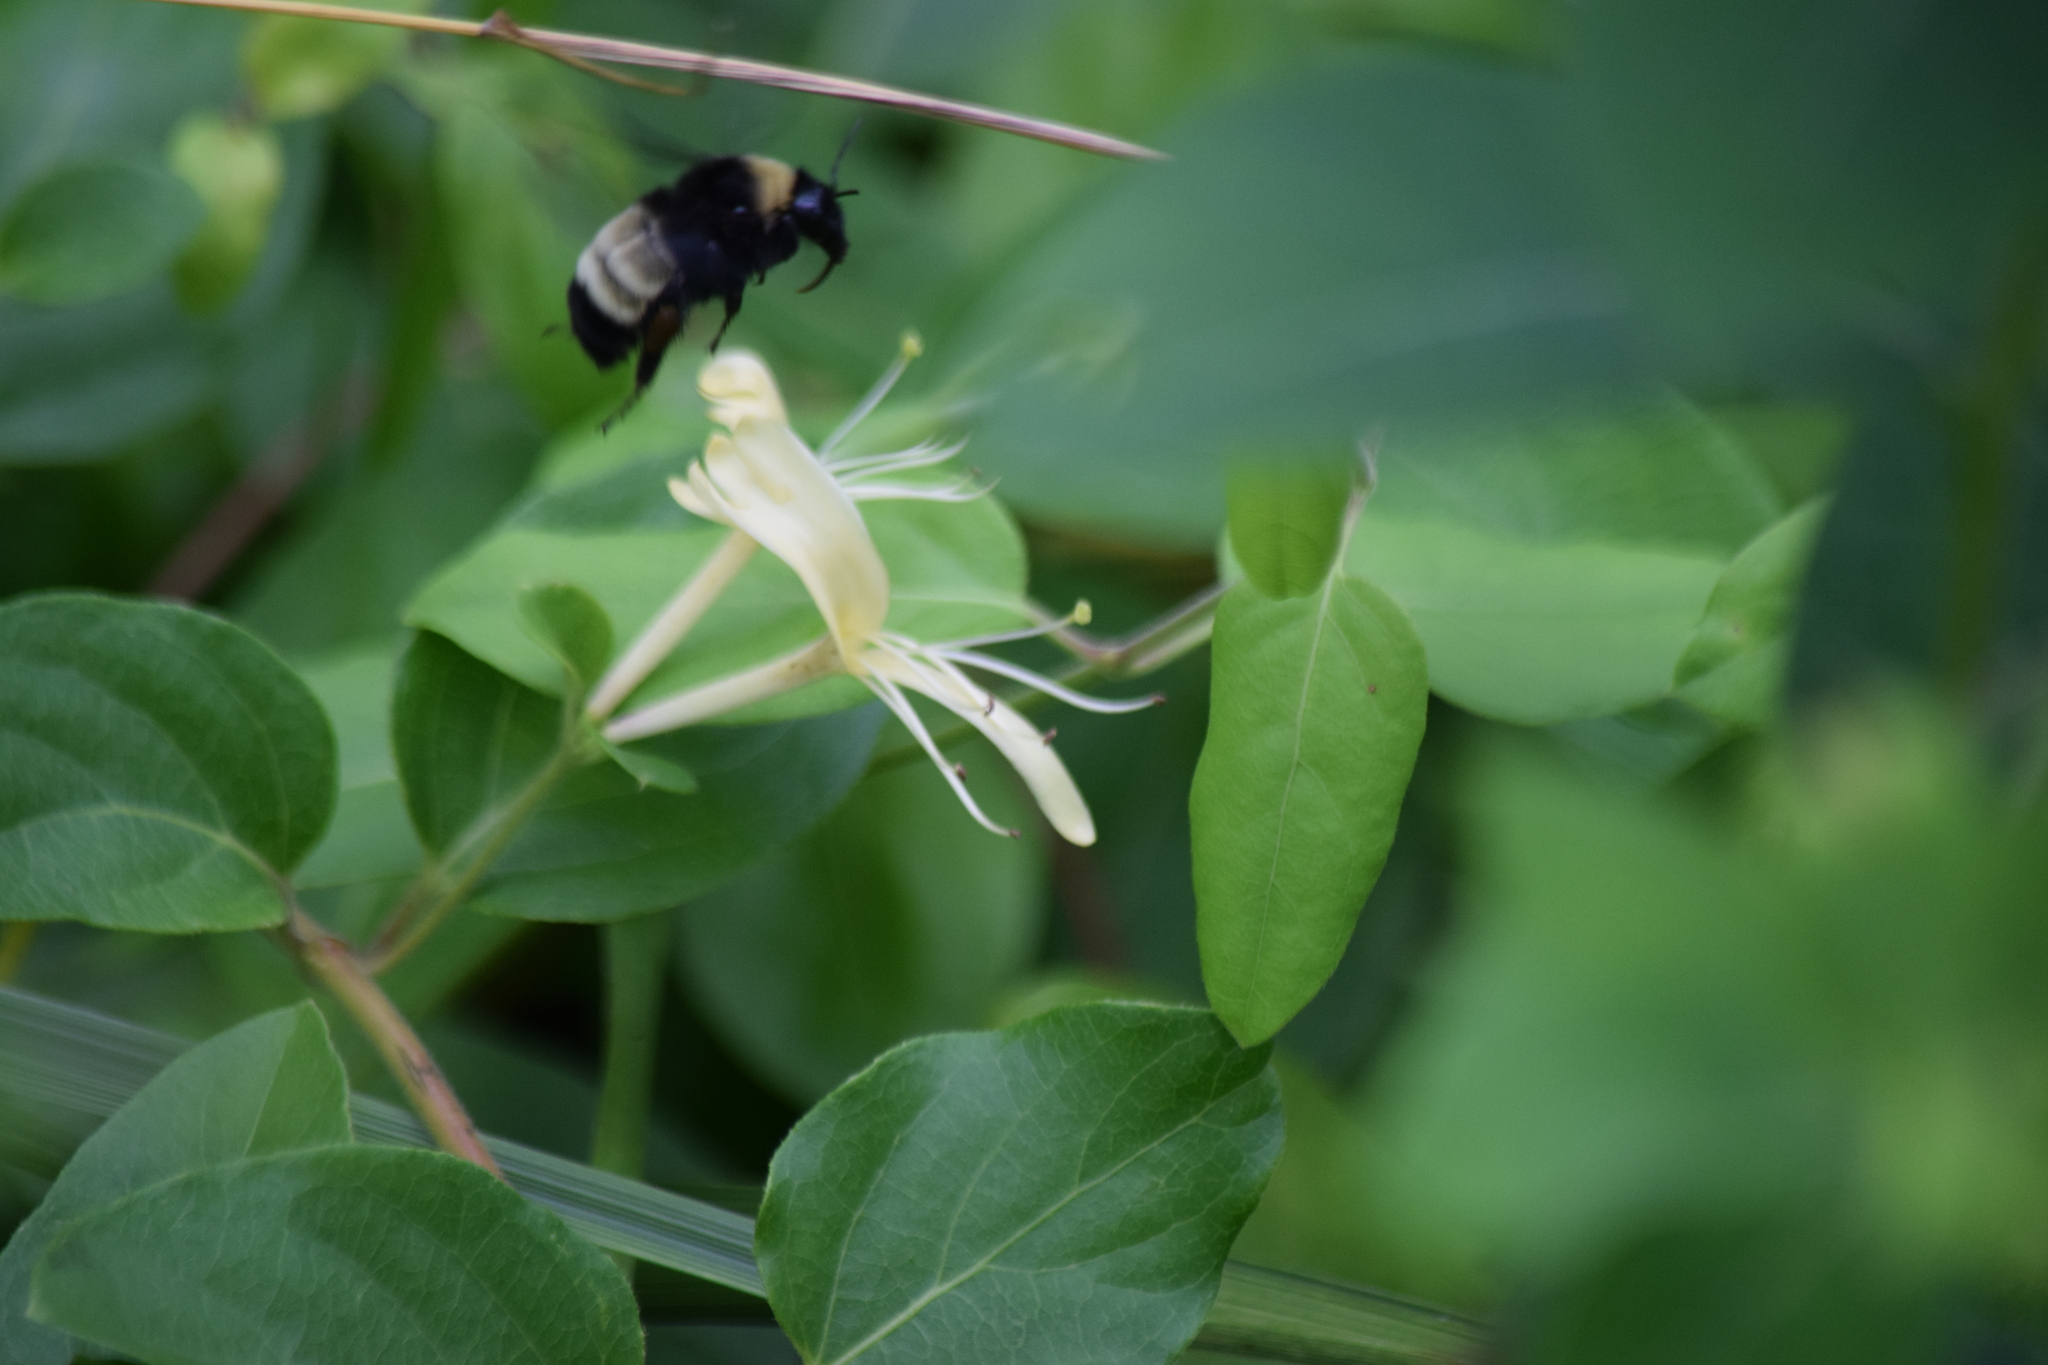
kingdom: Animalia
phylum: Arthropoda
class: Insecta
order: Hymenoptera
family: Apidae
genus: Bombus
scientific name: Bombus pensylvanicus
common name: Bumble bee
